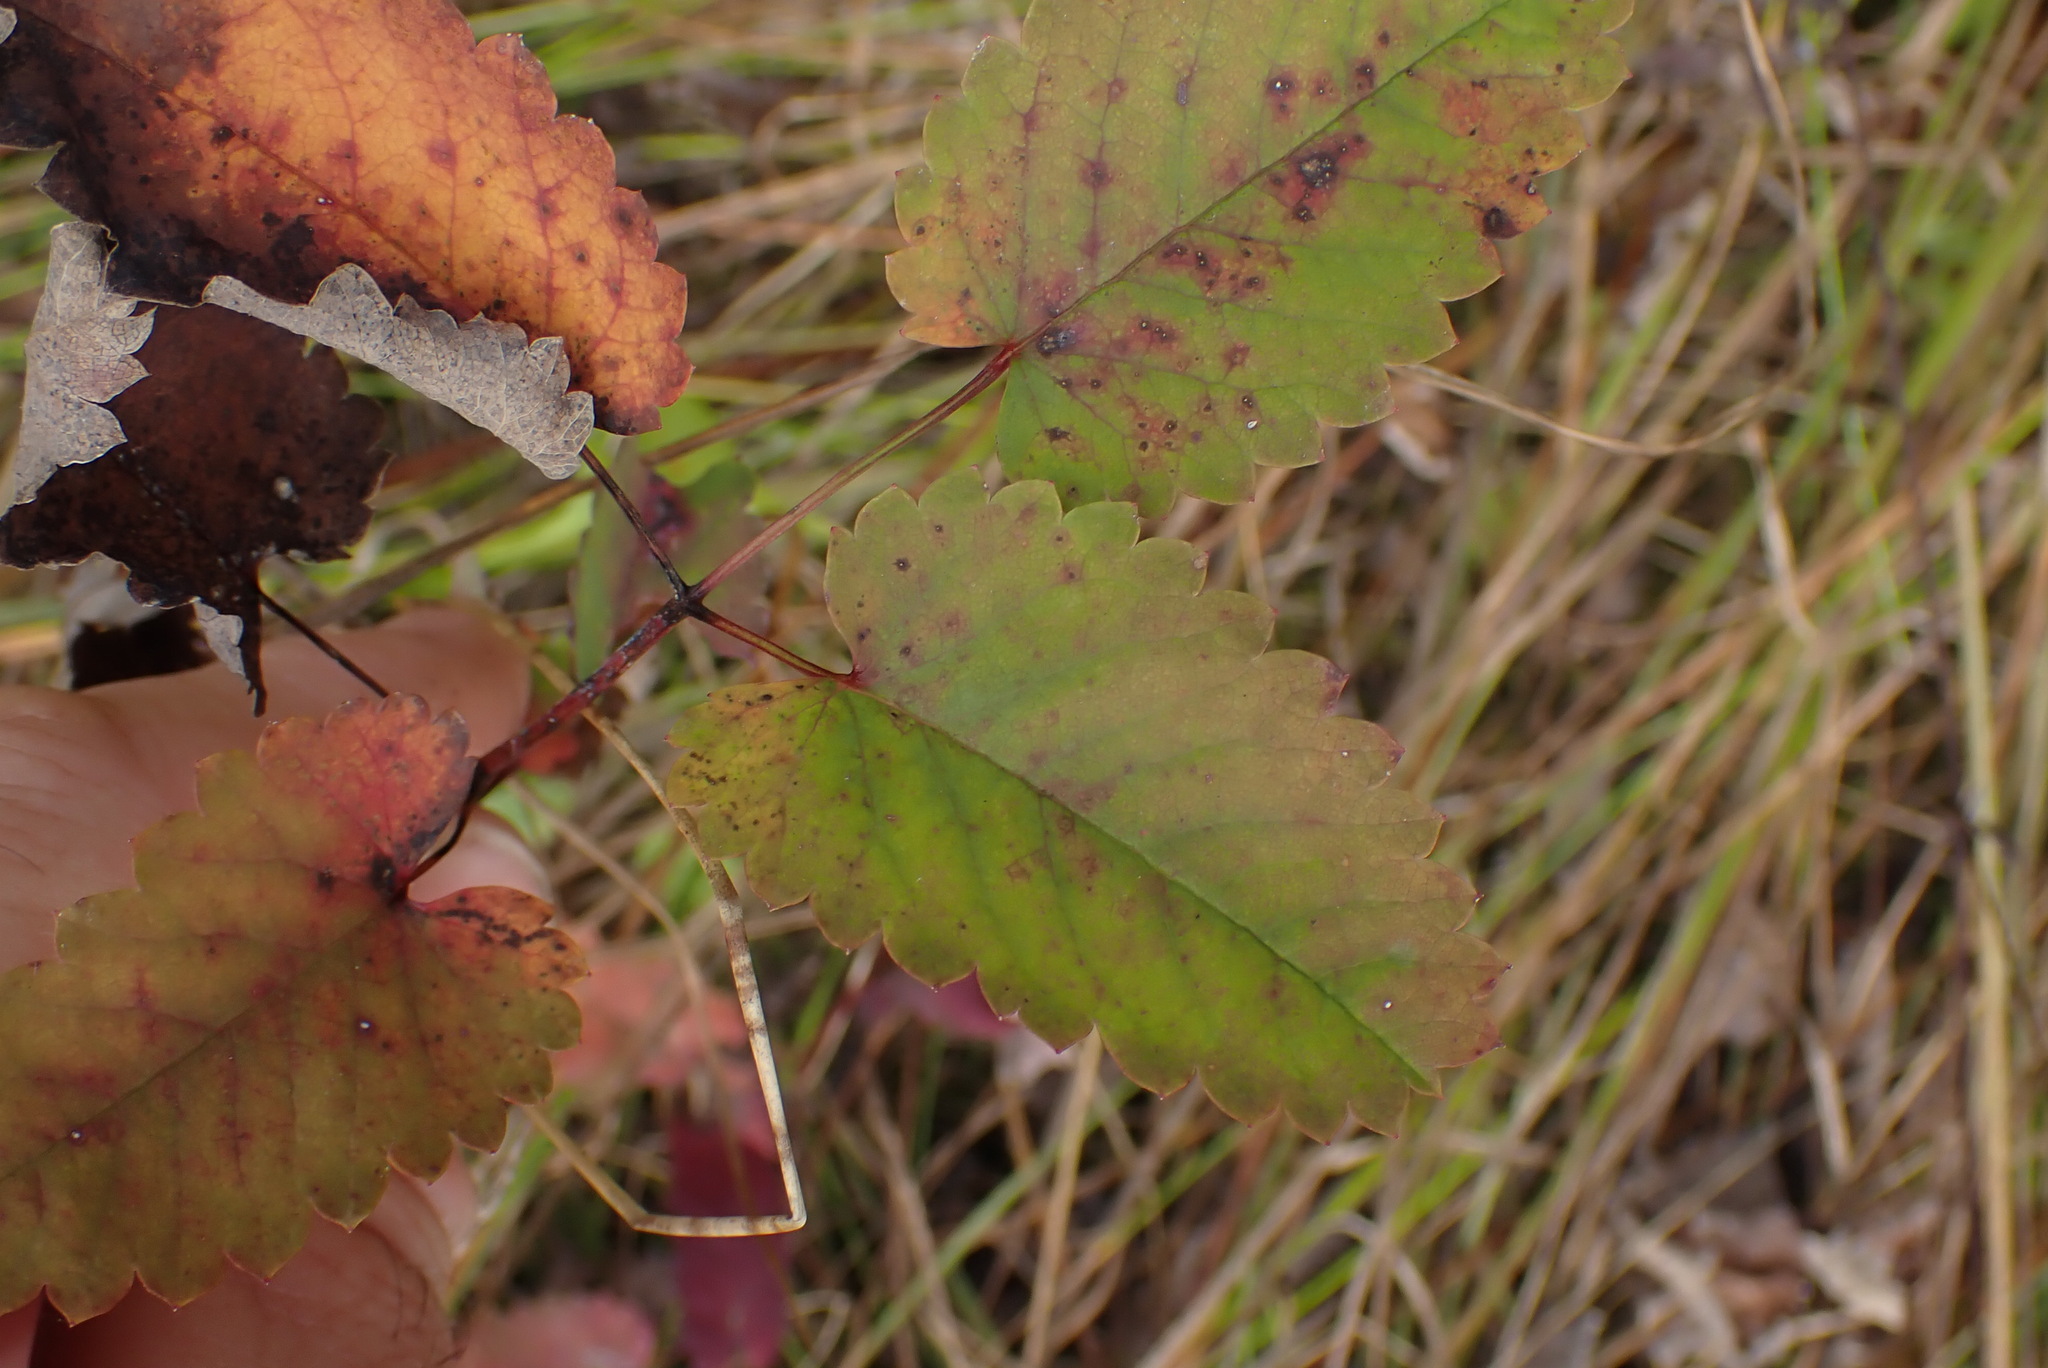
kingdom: Plantae
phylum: Tracheophyta
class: Magnoliopsida
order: Rosales
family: Rosaceae
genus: Sanguisorba
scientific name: Sanguisorba officinalis
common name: Great burnet
